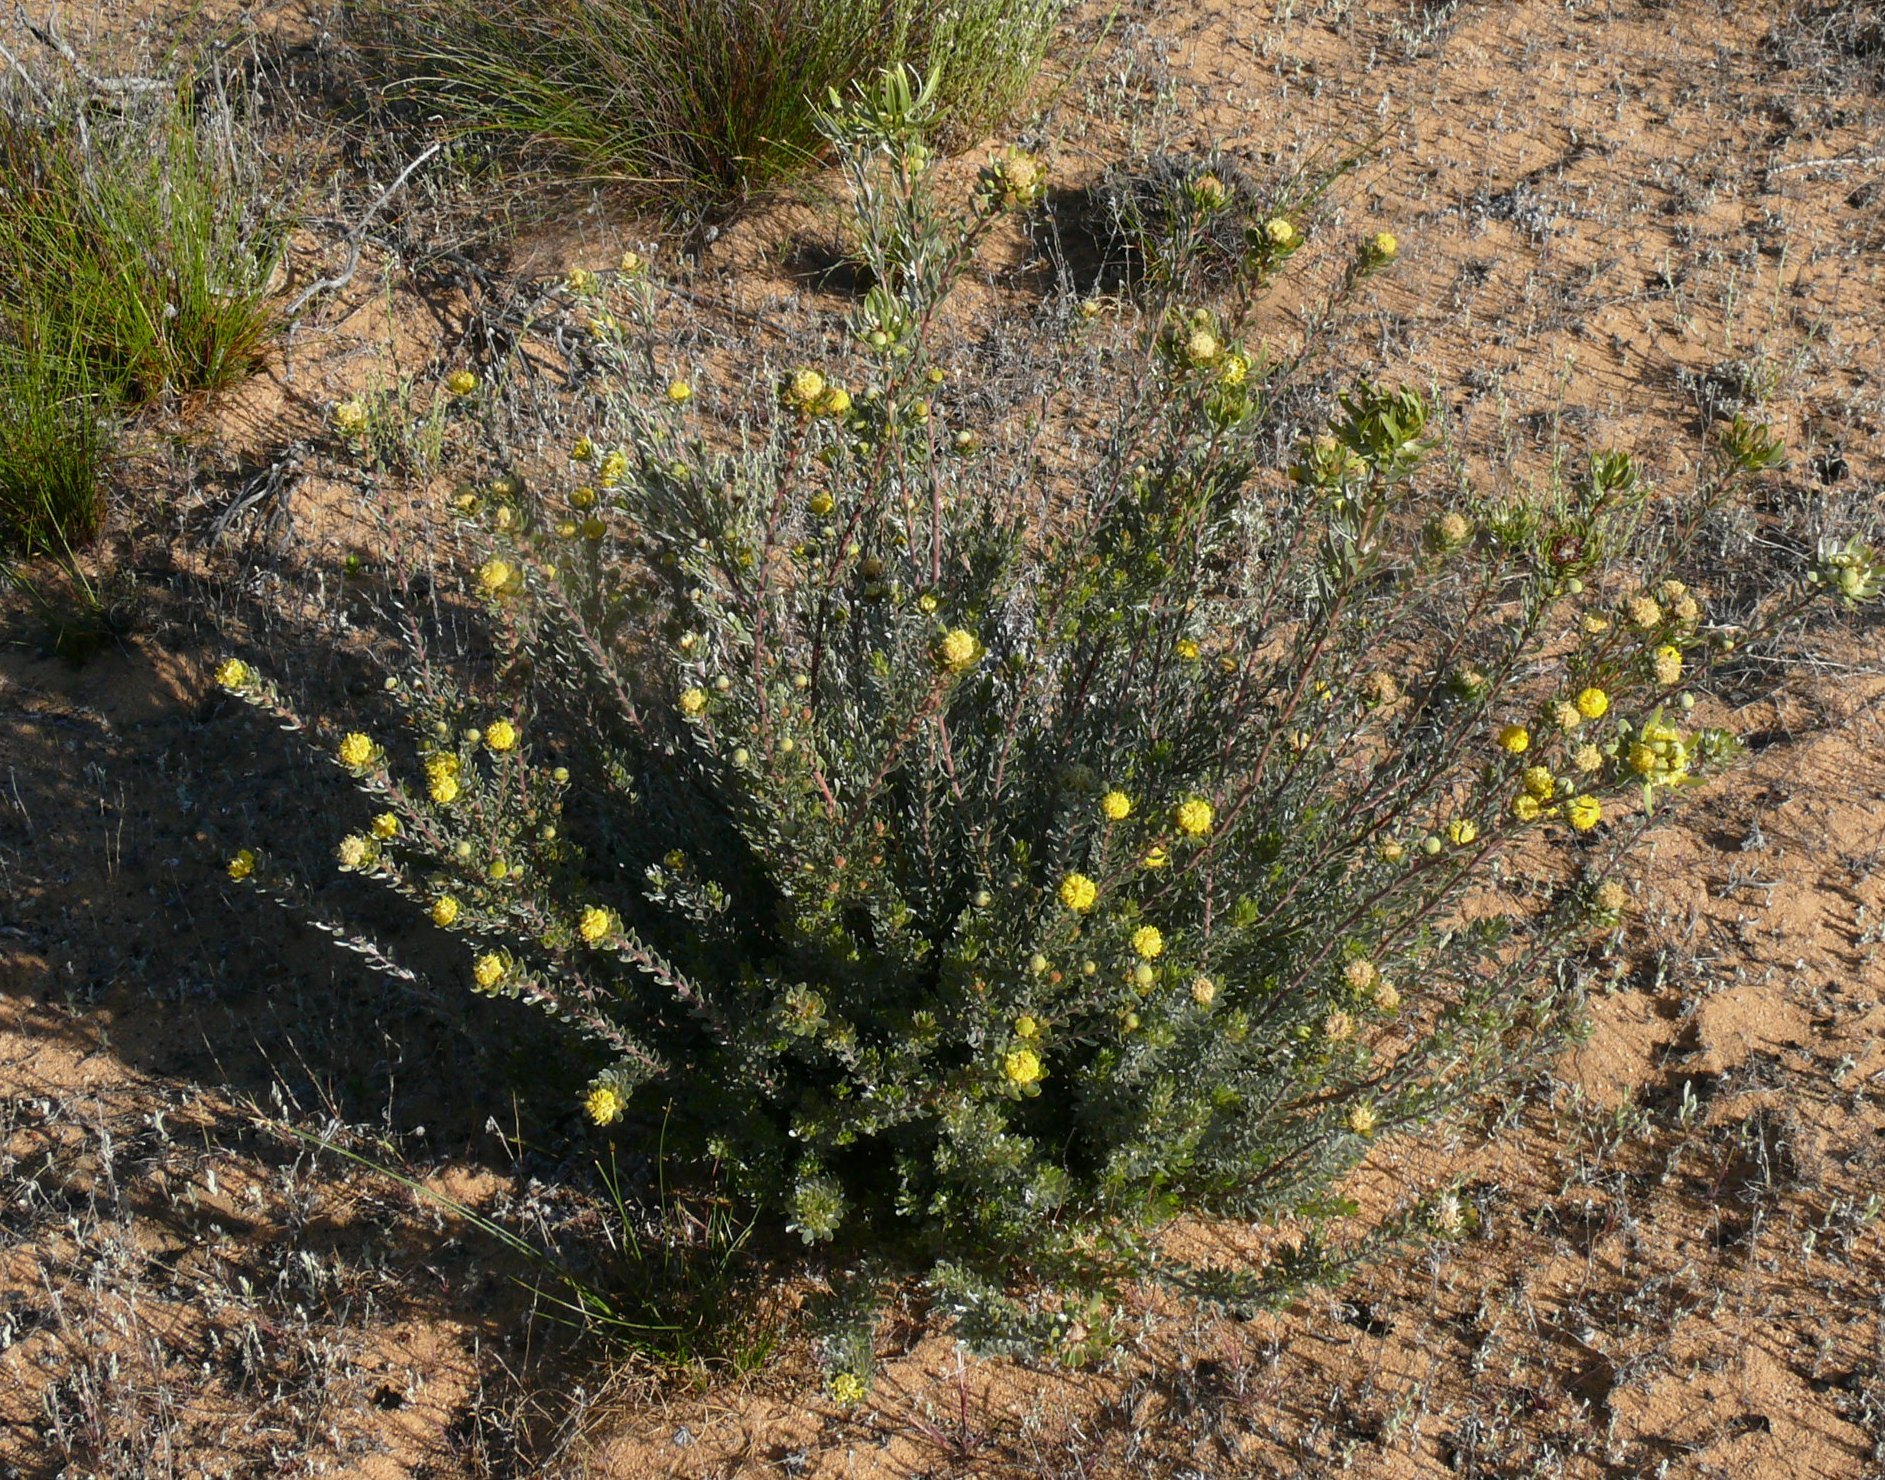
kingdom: Plantae
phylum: Tracheophyta
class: Magnoliopsida
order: Proteales
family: Proteaceae
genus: Leucadendron
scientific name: Leucadendron nitidum
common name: Bokkeveld conebush
